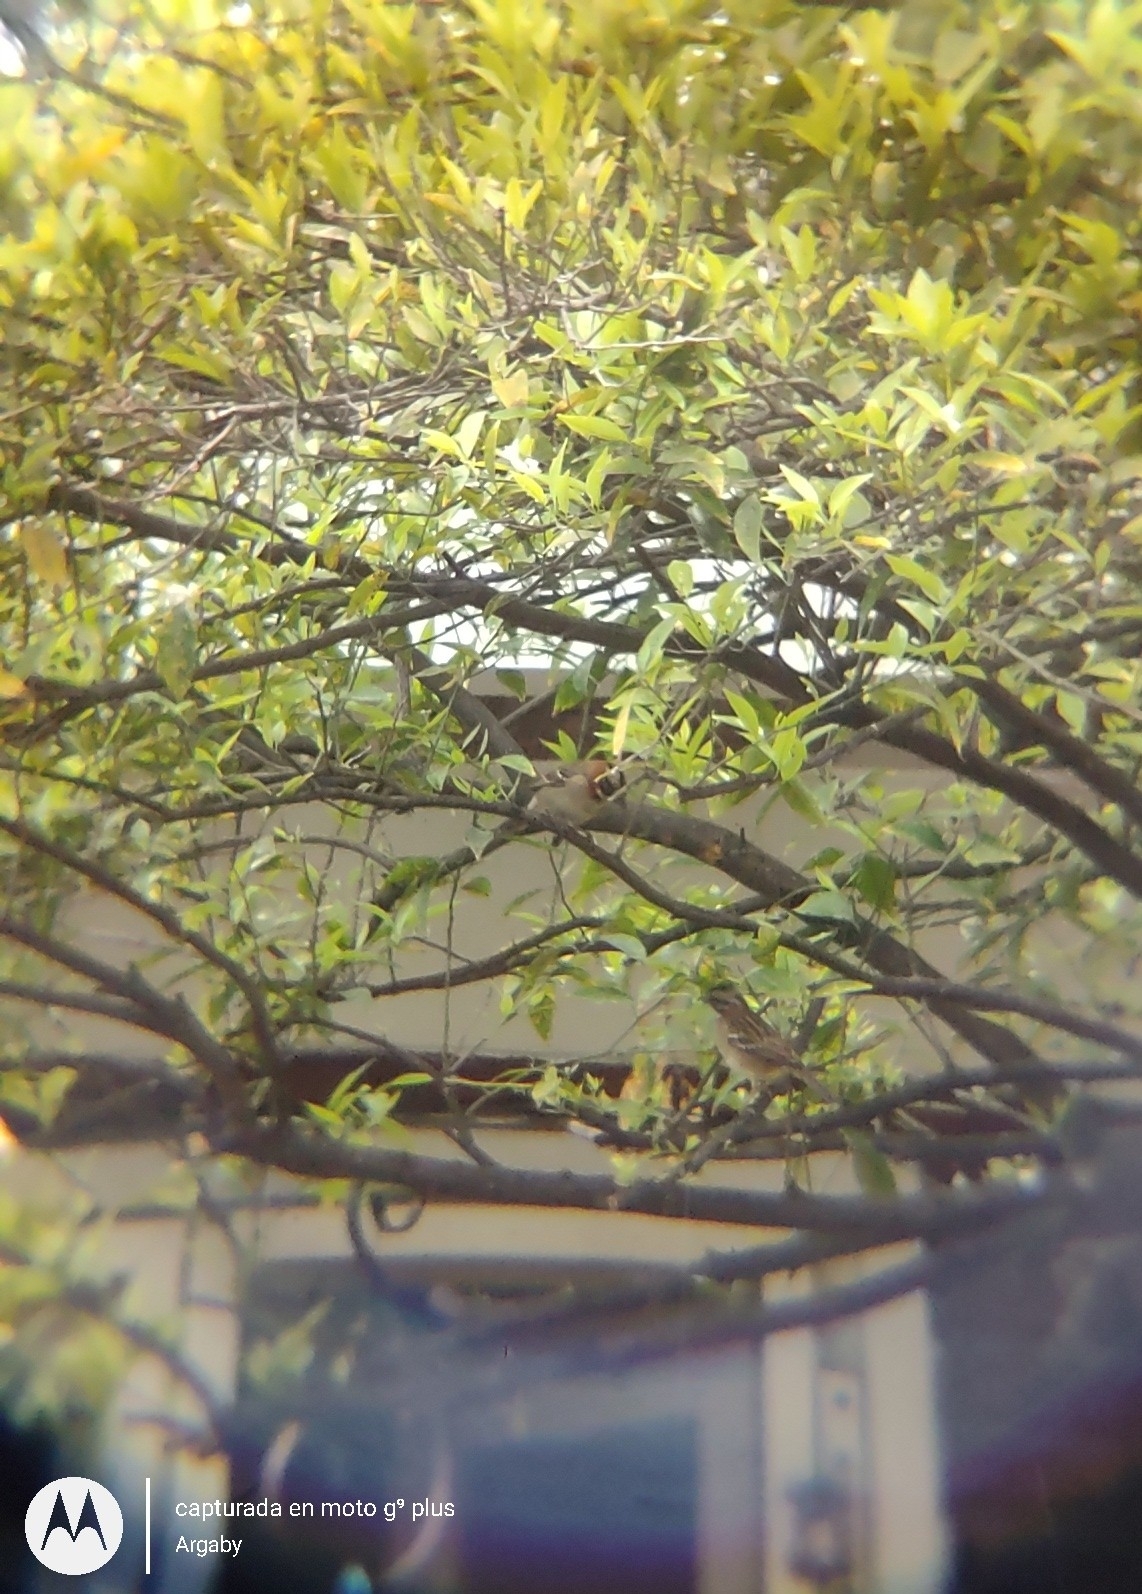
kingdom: Animalia
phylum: Chordata
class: Aves
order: Passeriformes
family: Passerellidae
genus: Zonotrichia
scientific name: Zonotrichia capensis
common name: Rufous-collared sparrow
